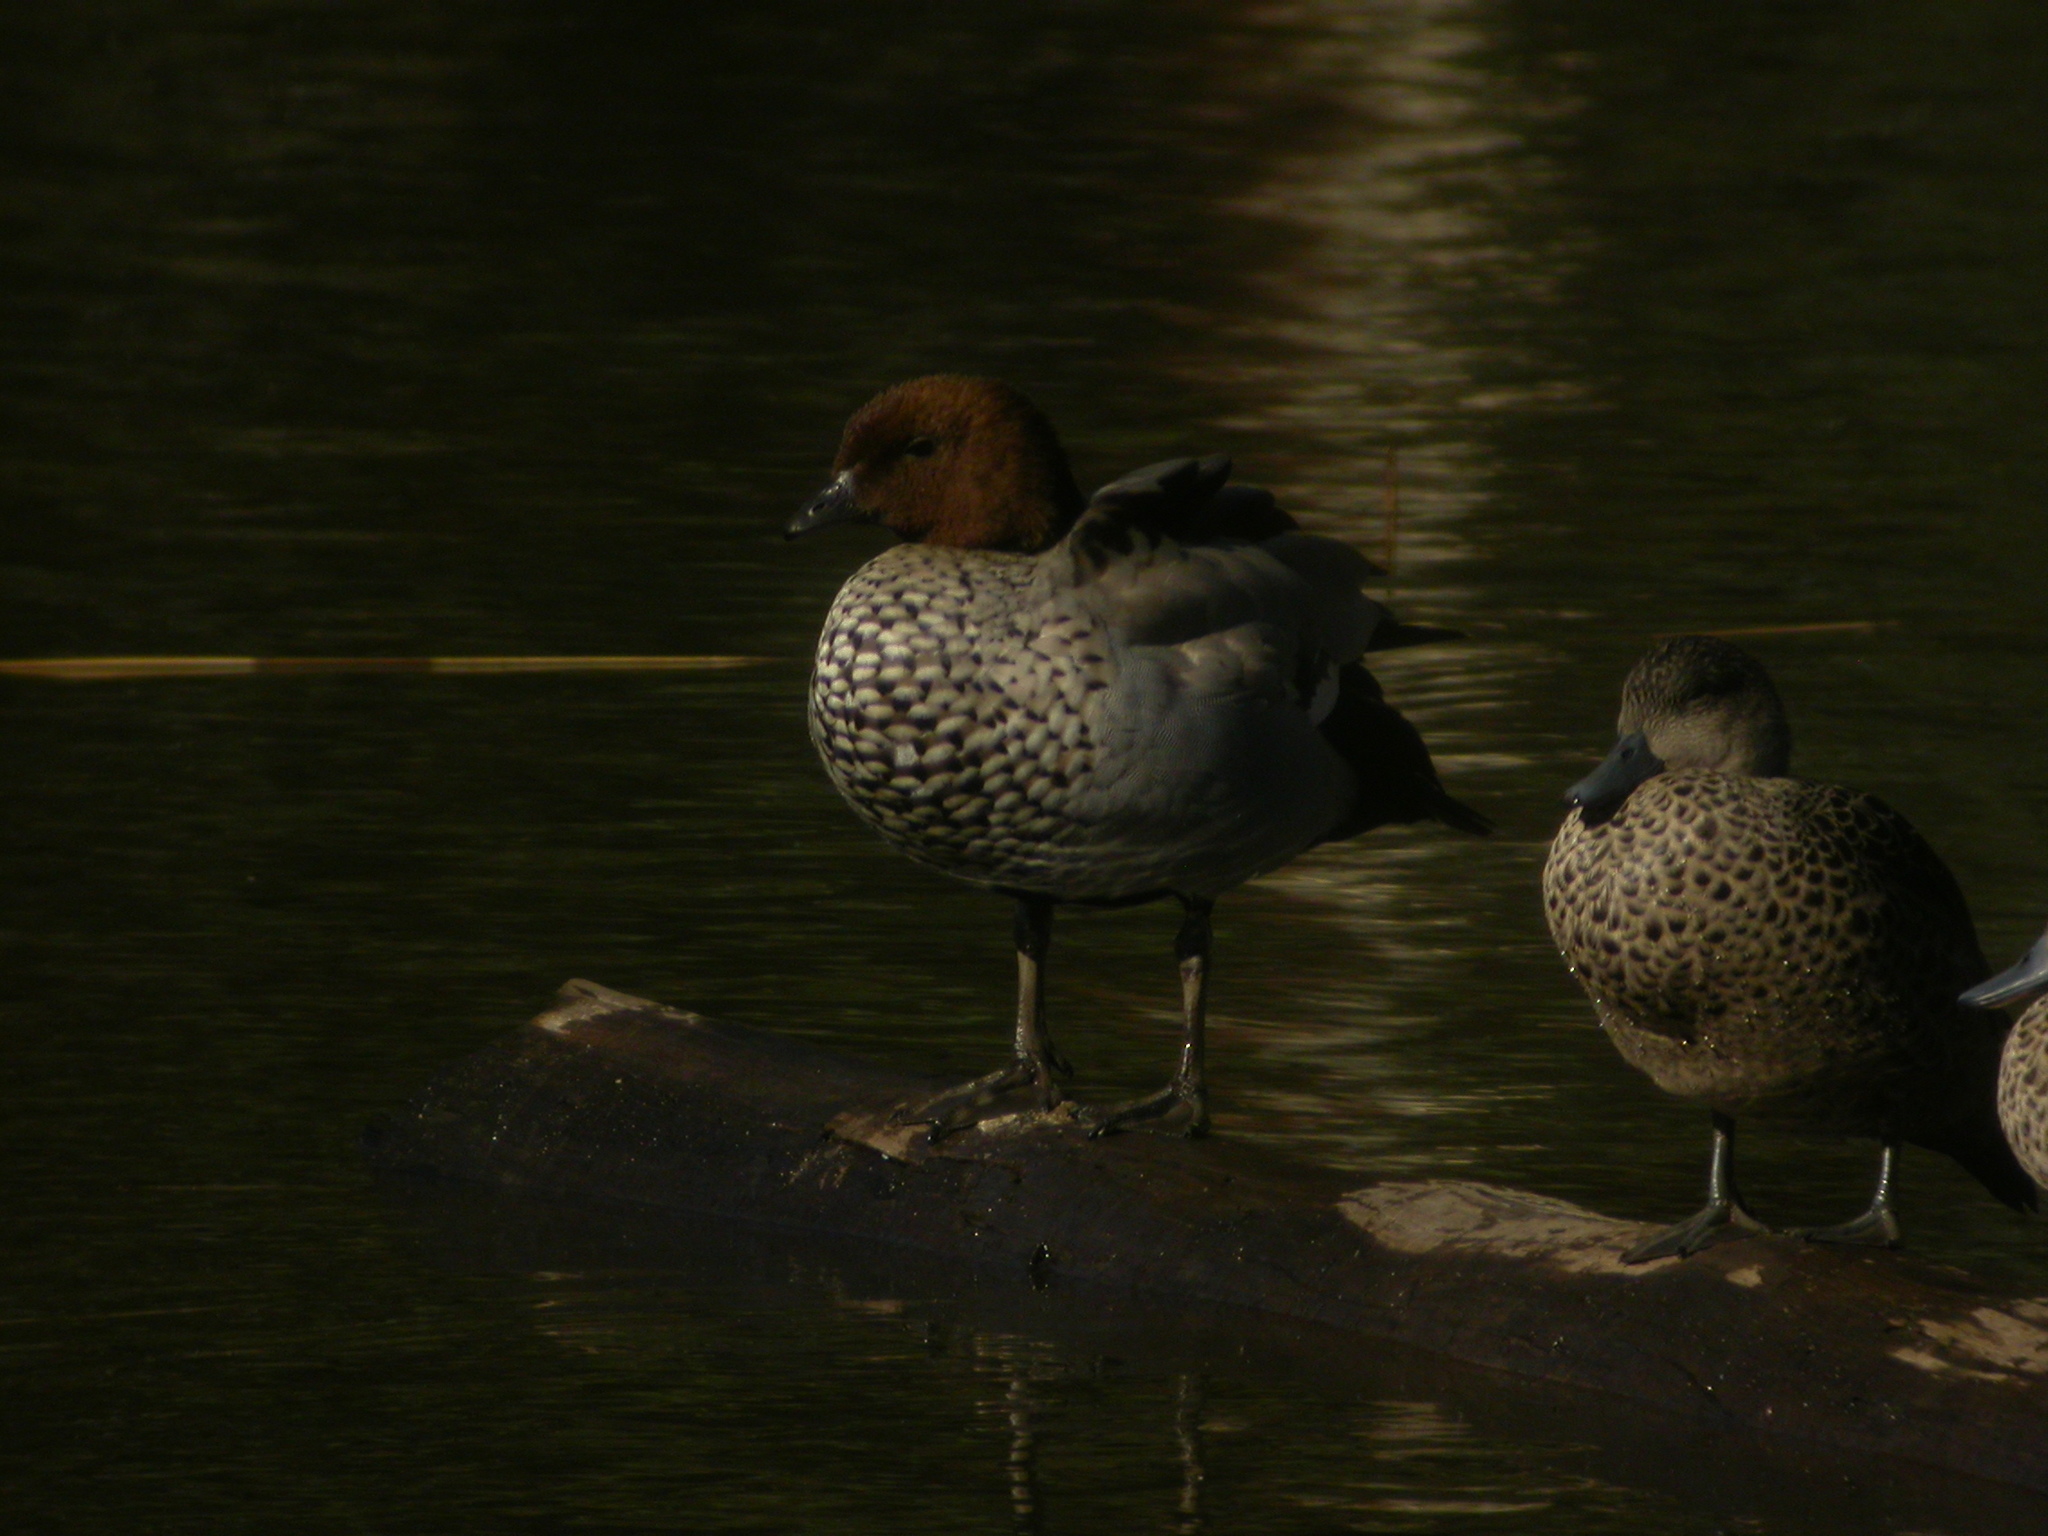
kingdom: Animalia
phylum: Chordata
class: Aves
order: Anseriformes
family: Anatidae
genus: Chenonetta
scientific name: Chenonetta jubata
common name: Maned duck
